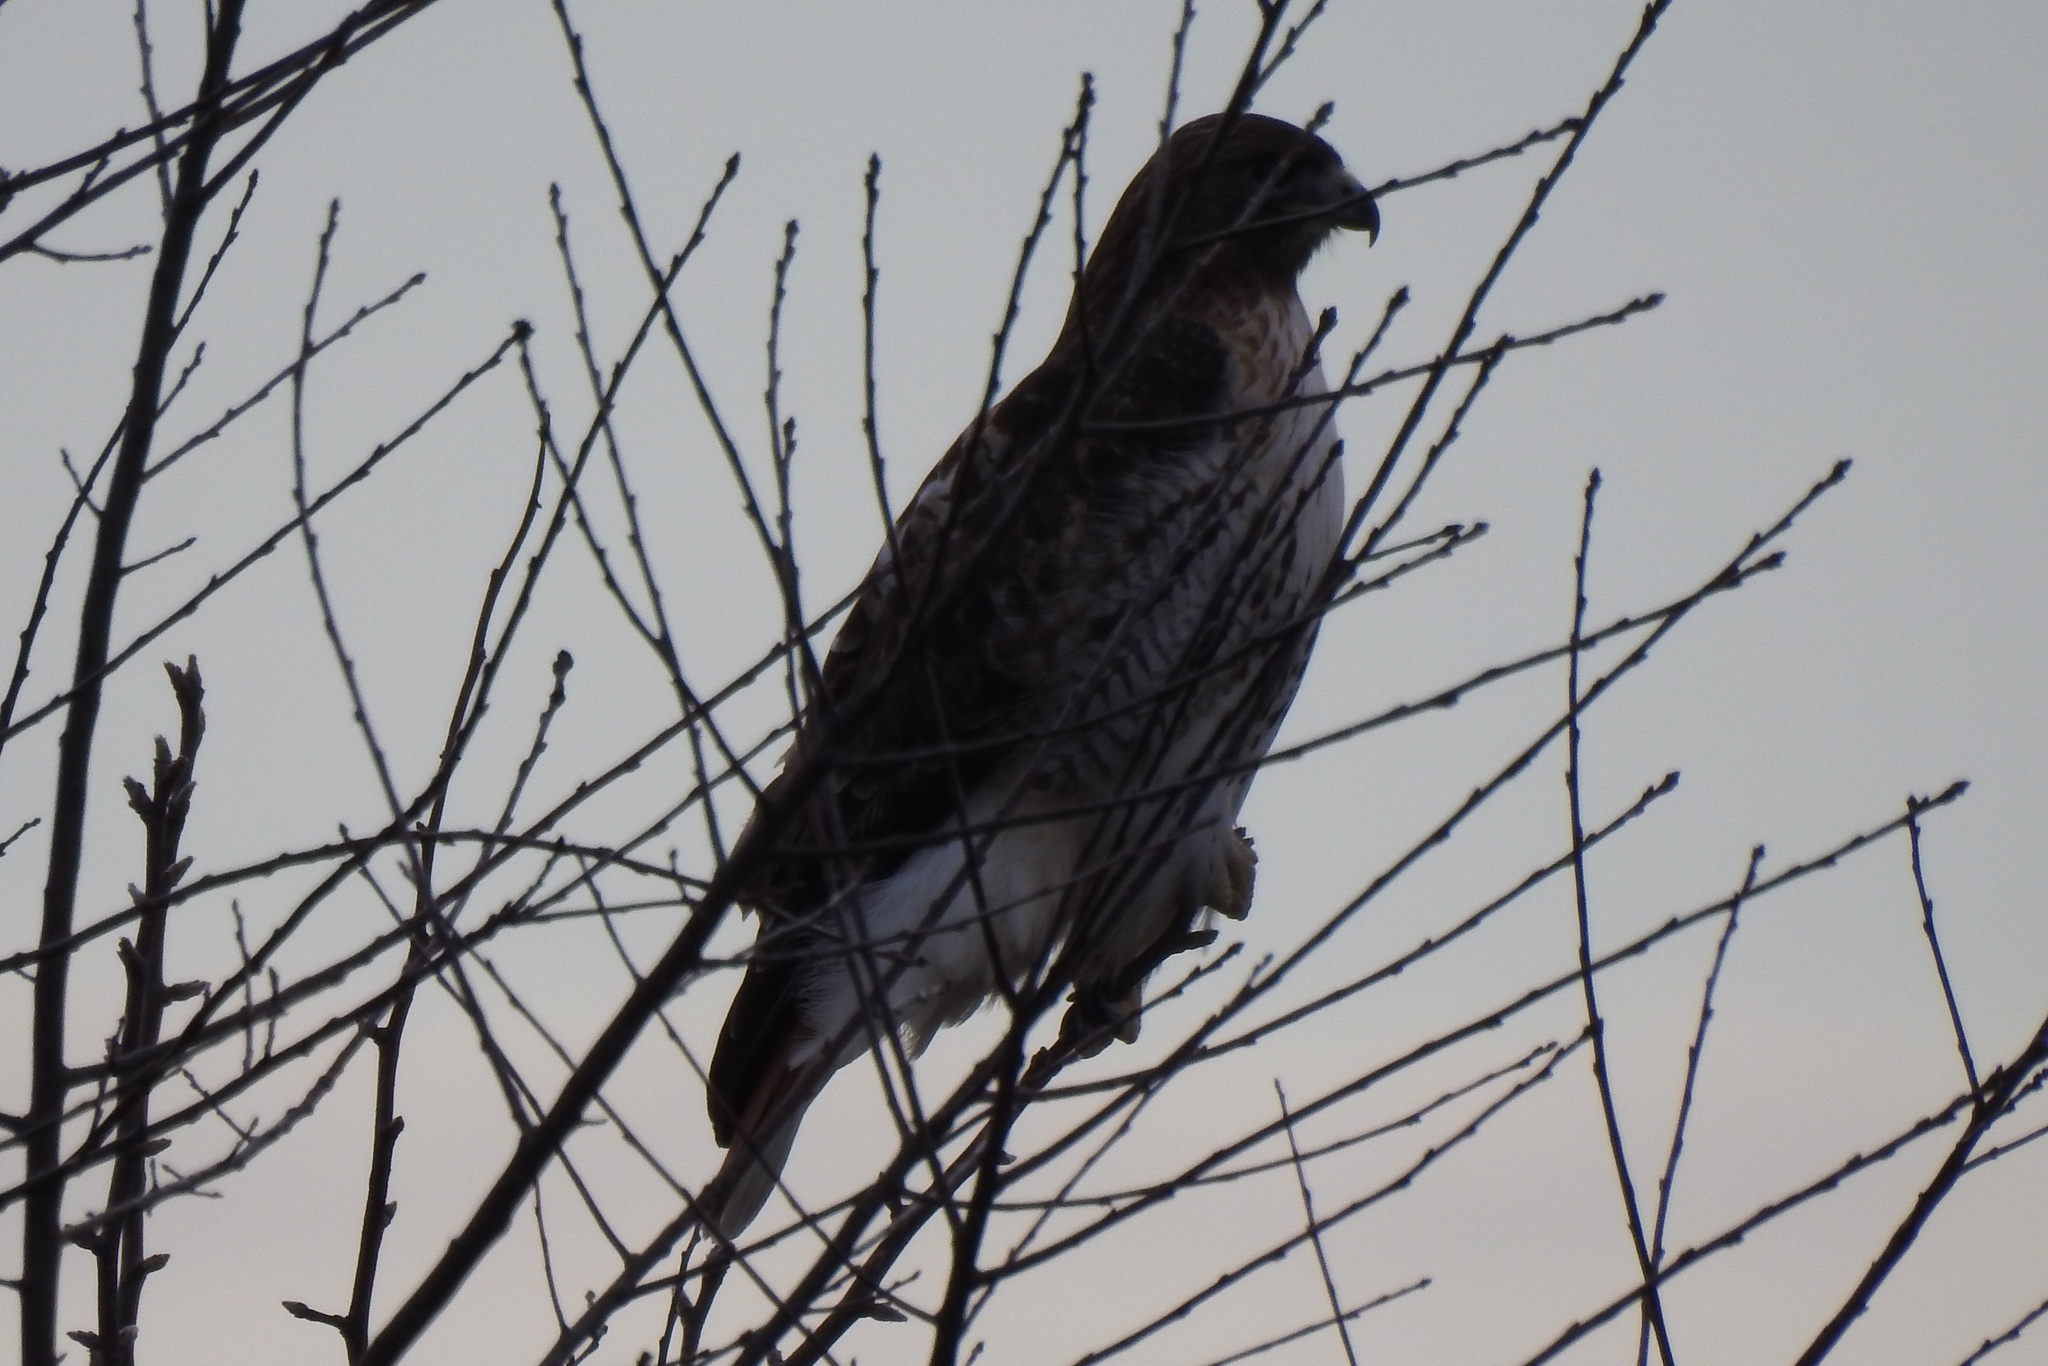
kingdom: Animalia
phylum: Chordata
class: Aves
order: Accipitriformes
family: Accipitridae
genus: Buteo
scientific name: Buteo jamaicensis
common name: Red-tailed hawk
